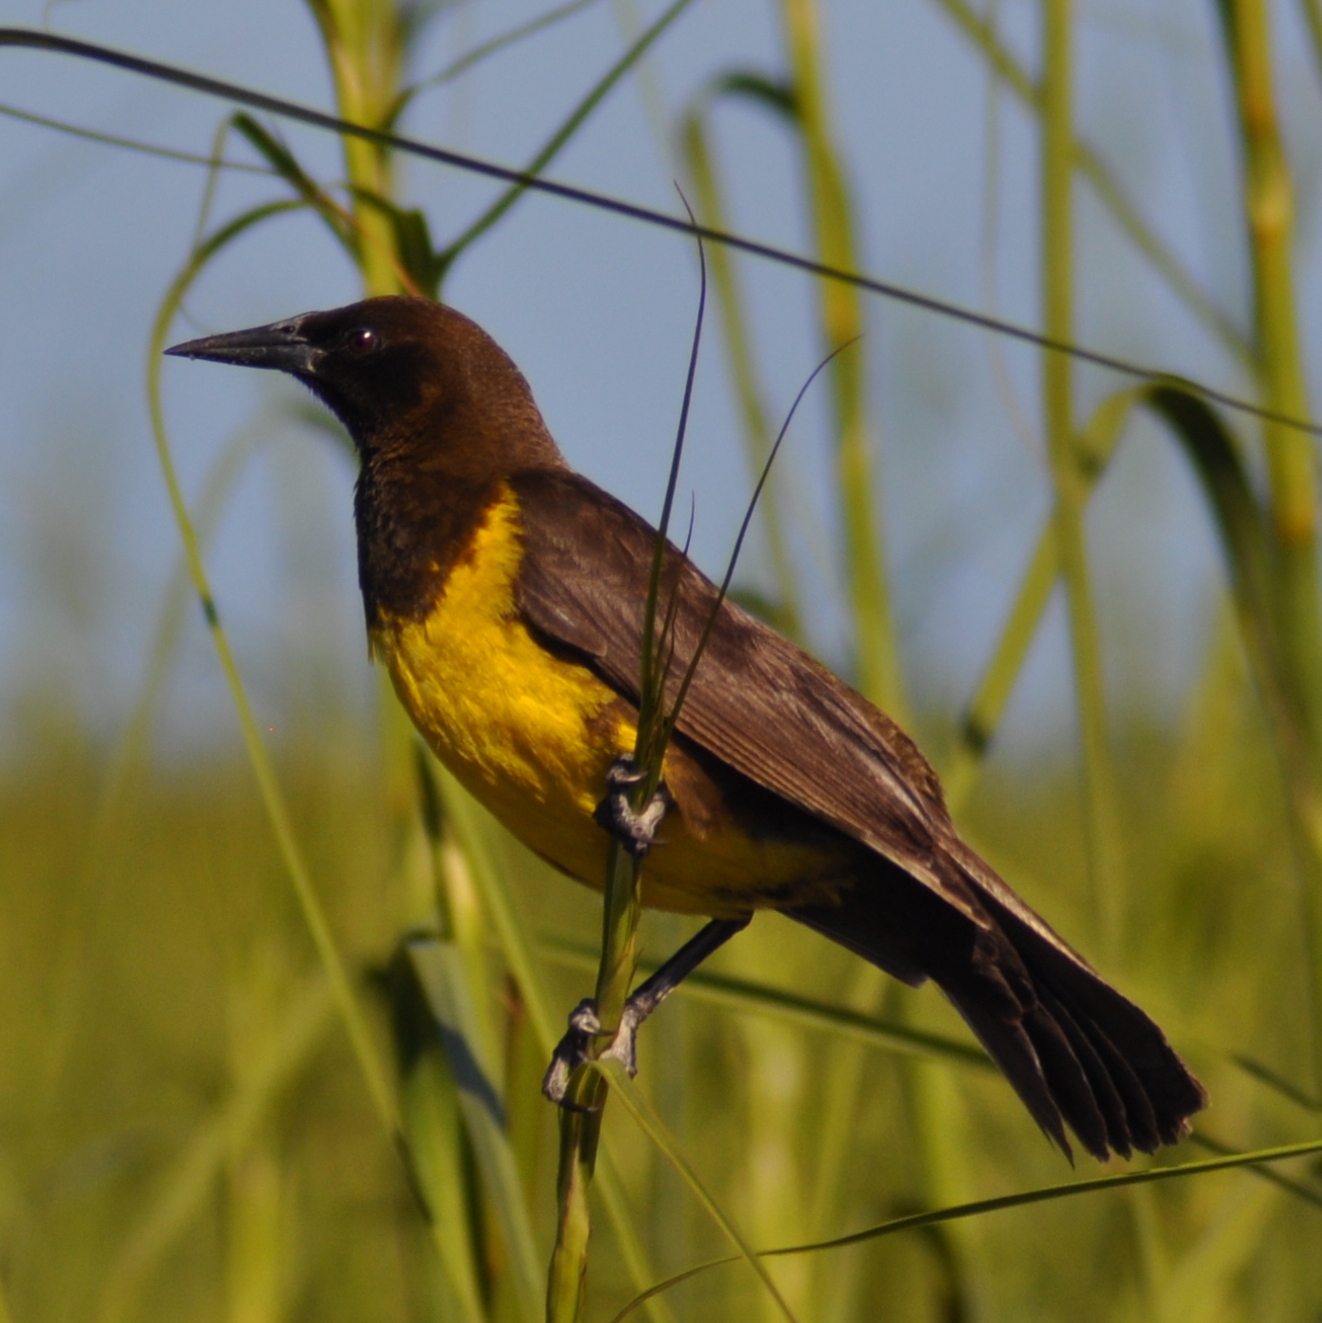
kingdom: Animalia
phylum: Chordata
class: Aves
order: Passeriformes
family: Icteridae
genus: Pseudoleistes
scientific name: Pseudoleistes virescens
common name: Brown-and-yellow marshbird
